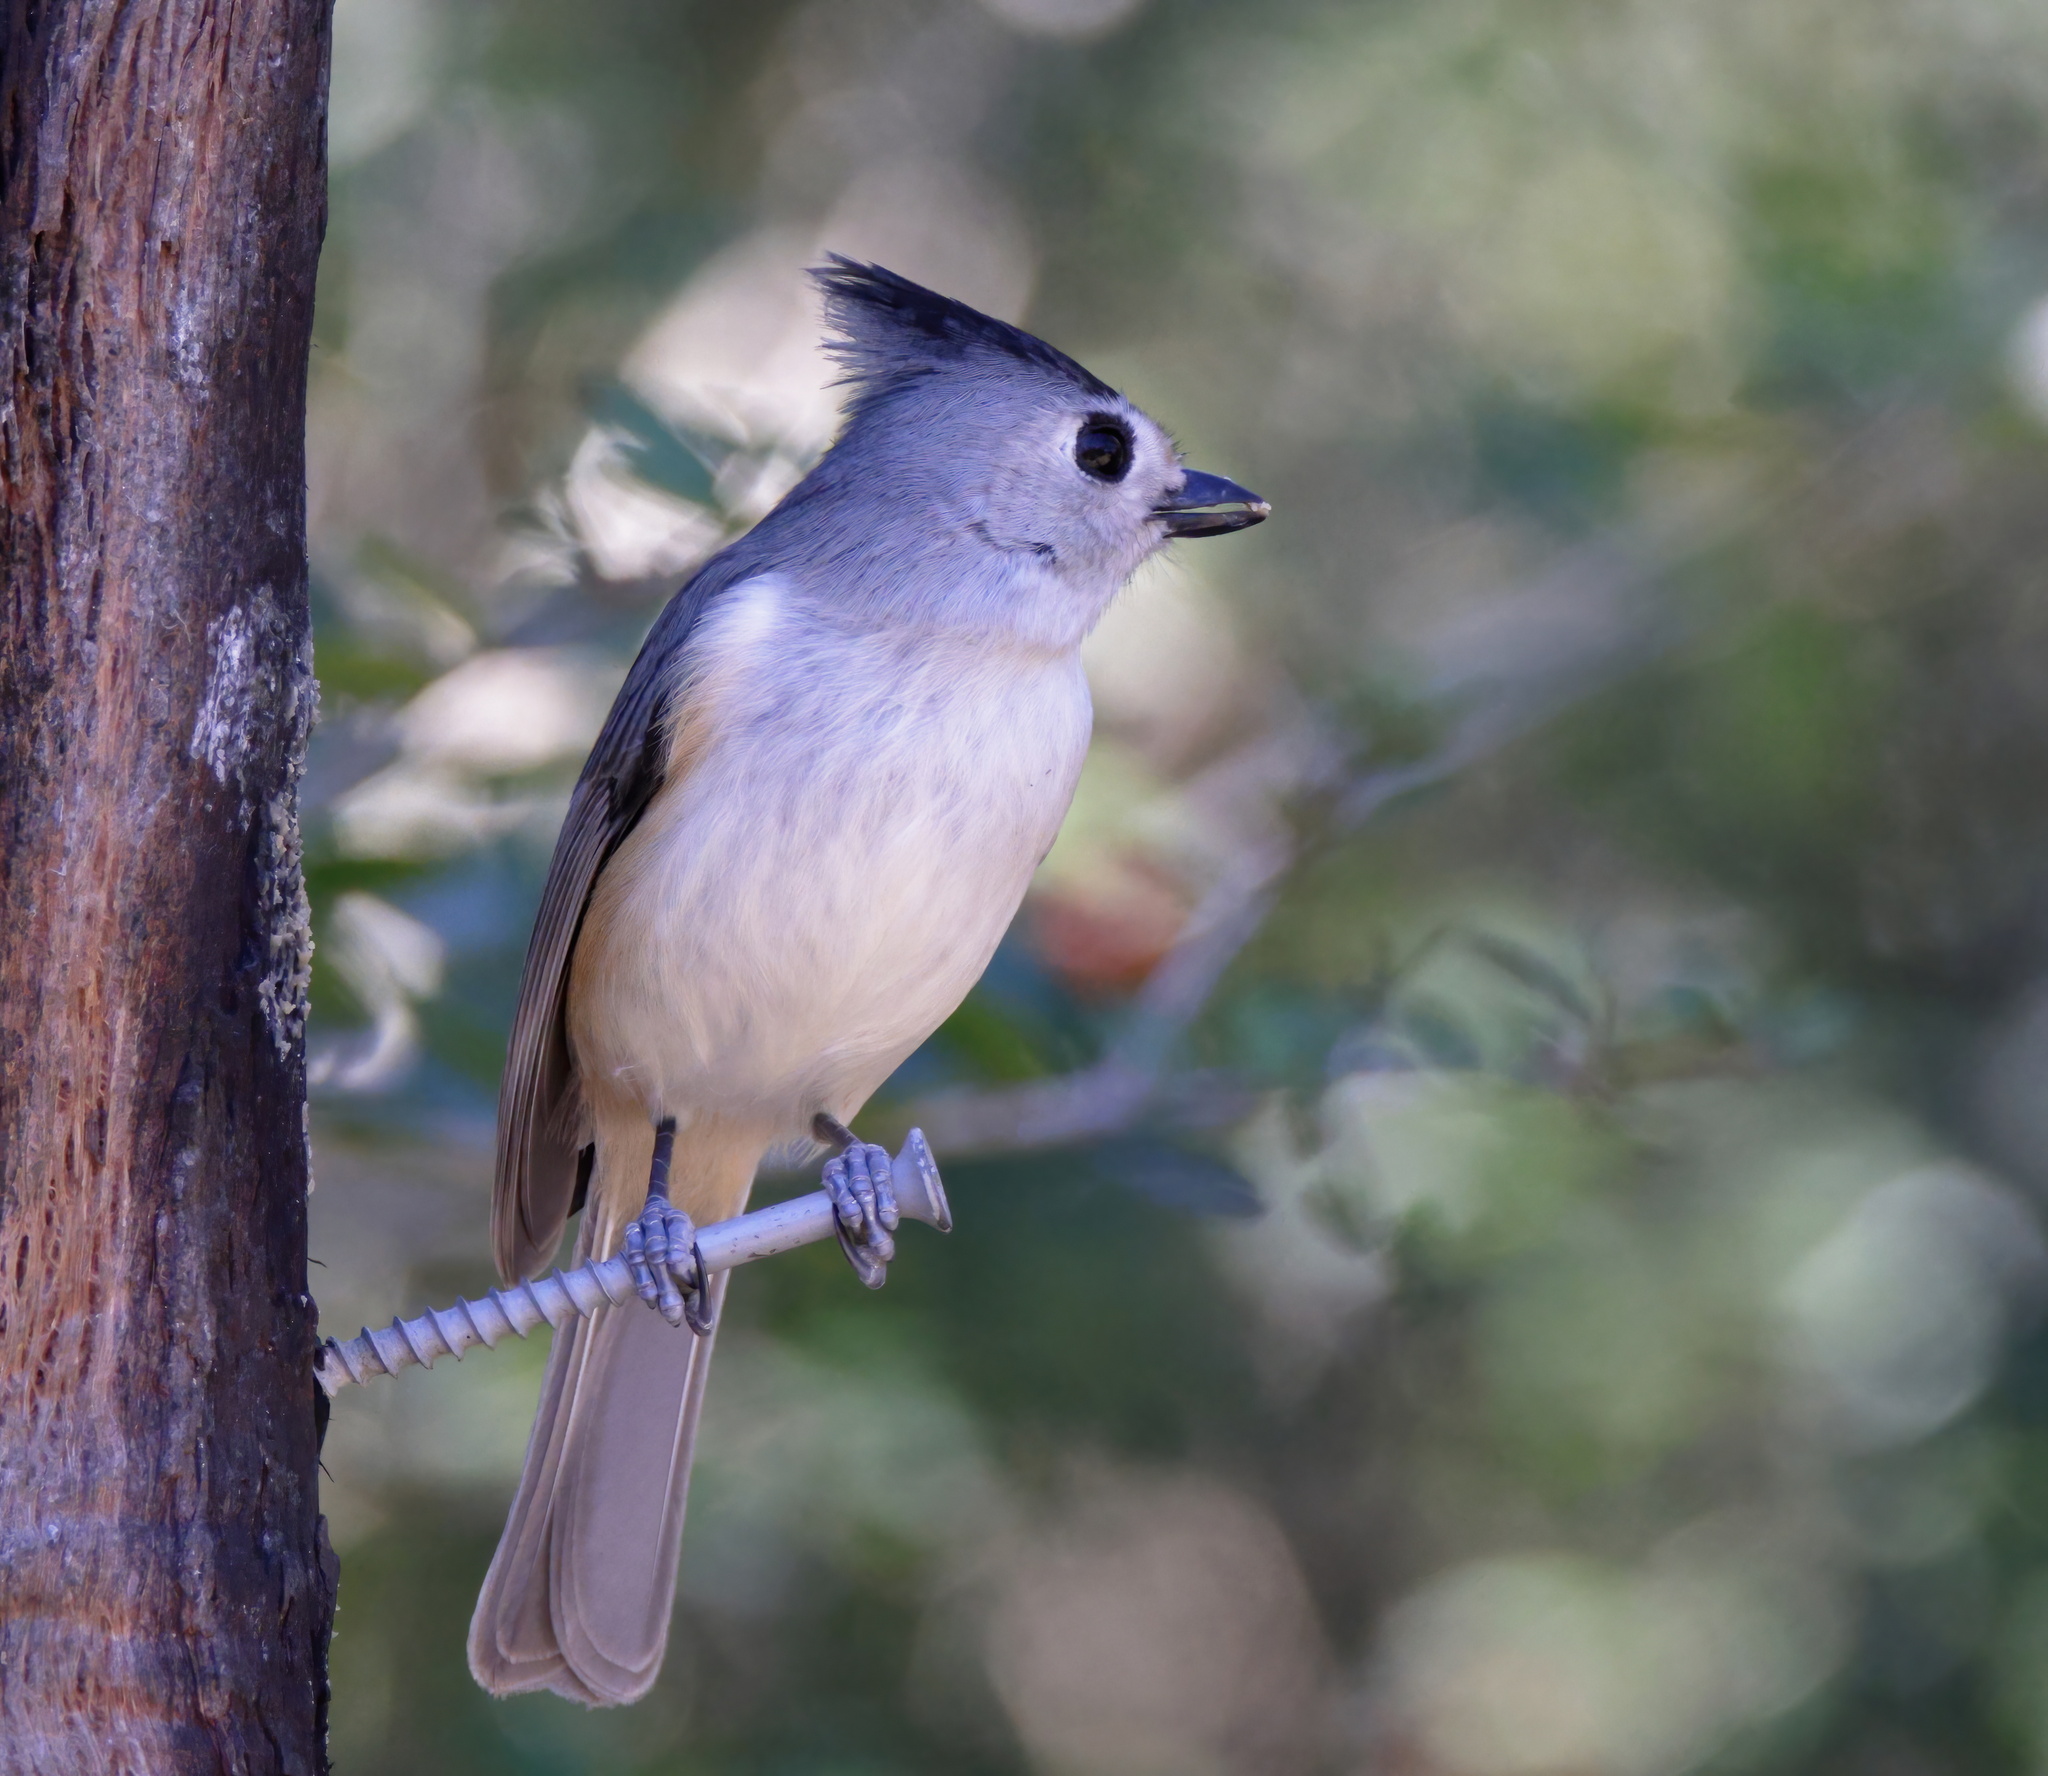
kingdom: Animalia
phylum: Chordata
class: Aves
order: Passeriformes
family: Paridae
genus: Baeolophus
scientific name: Baeolophus atricristatus
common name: Black-crested titmouse
